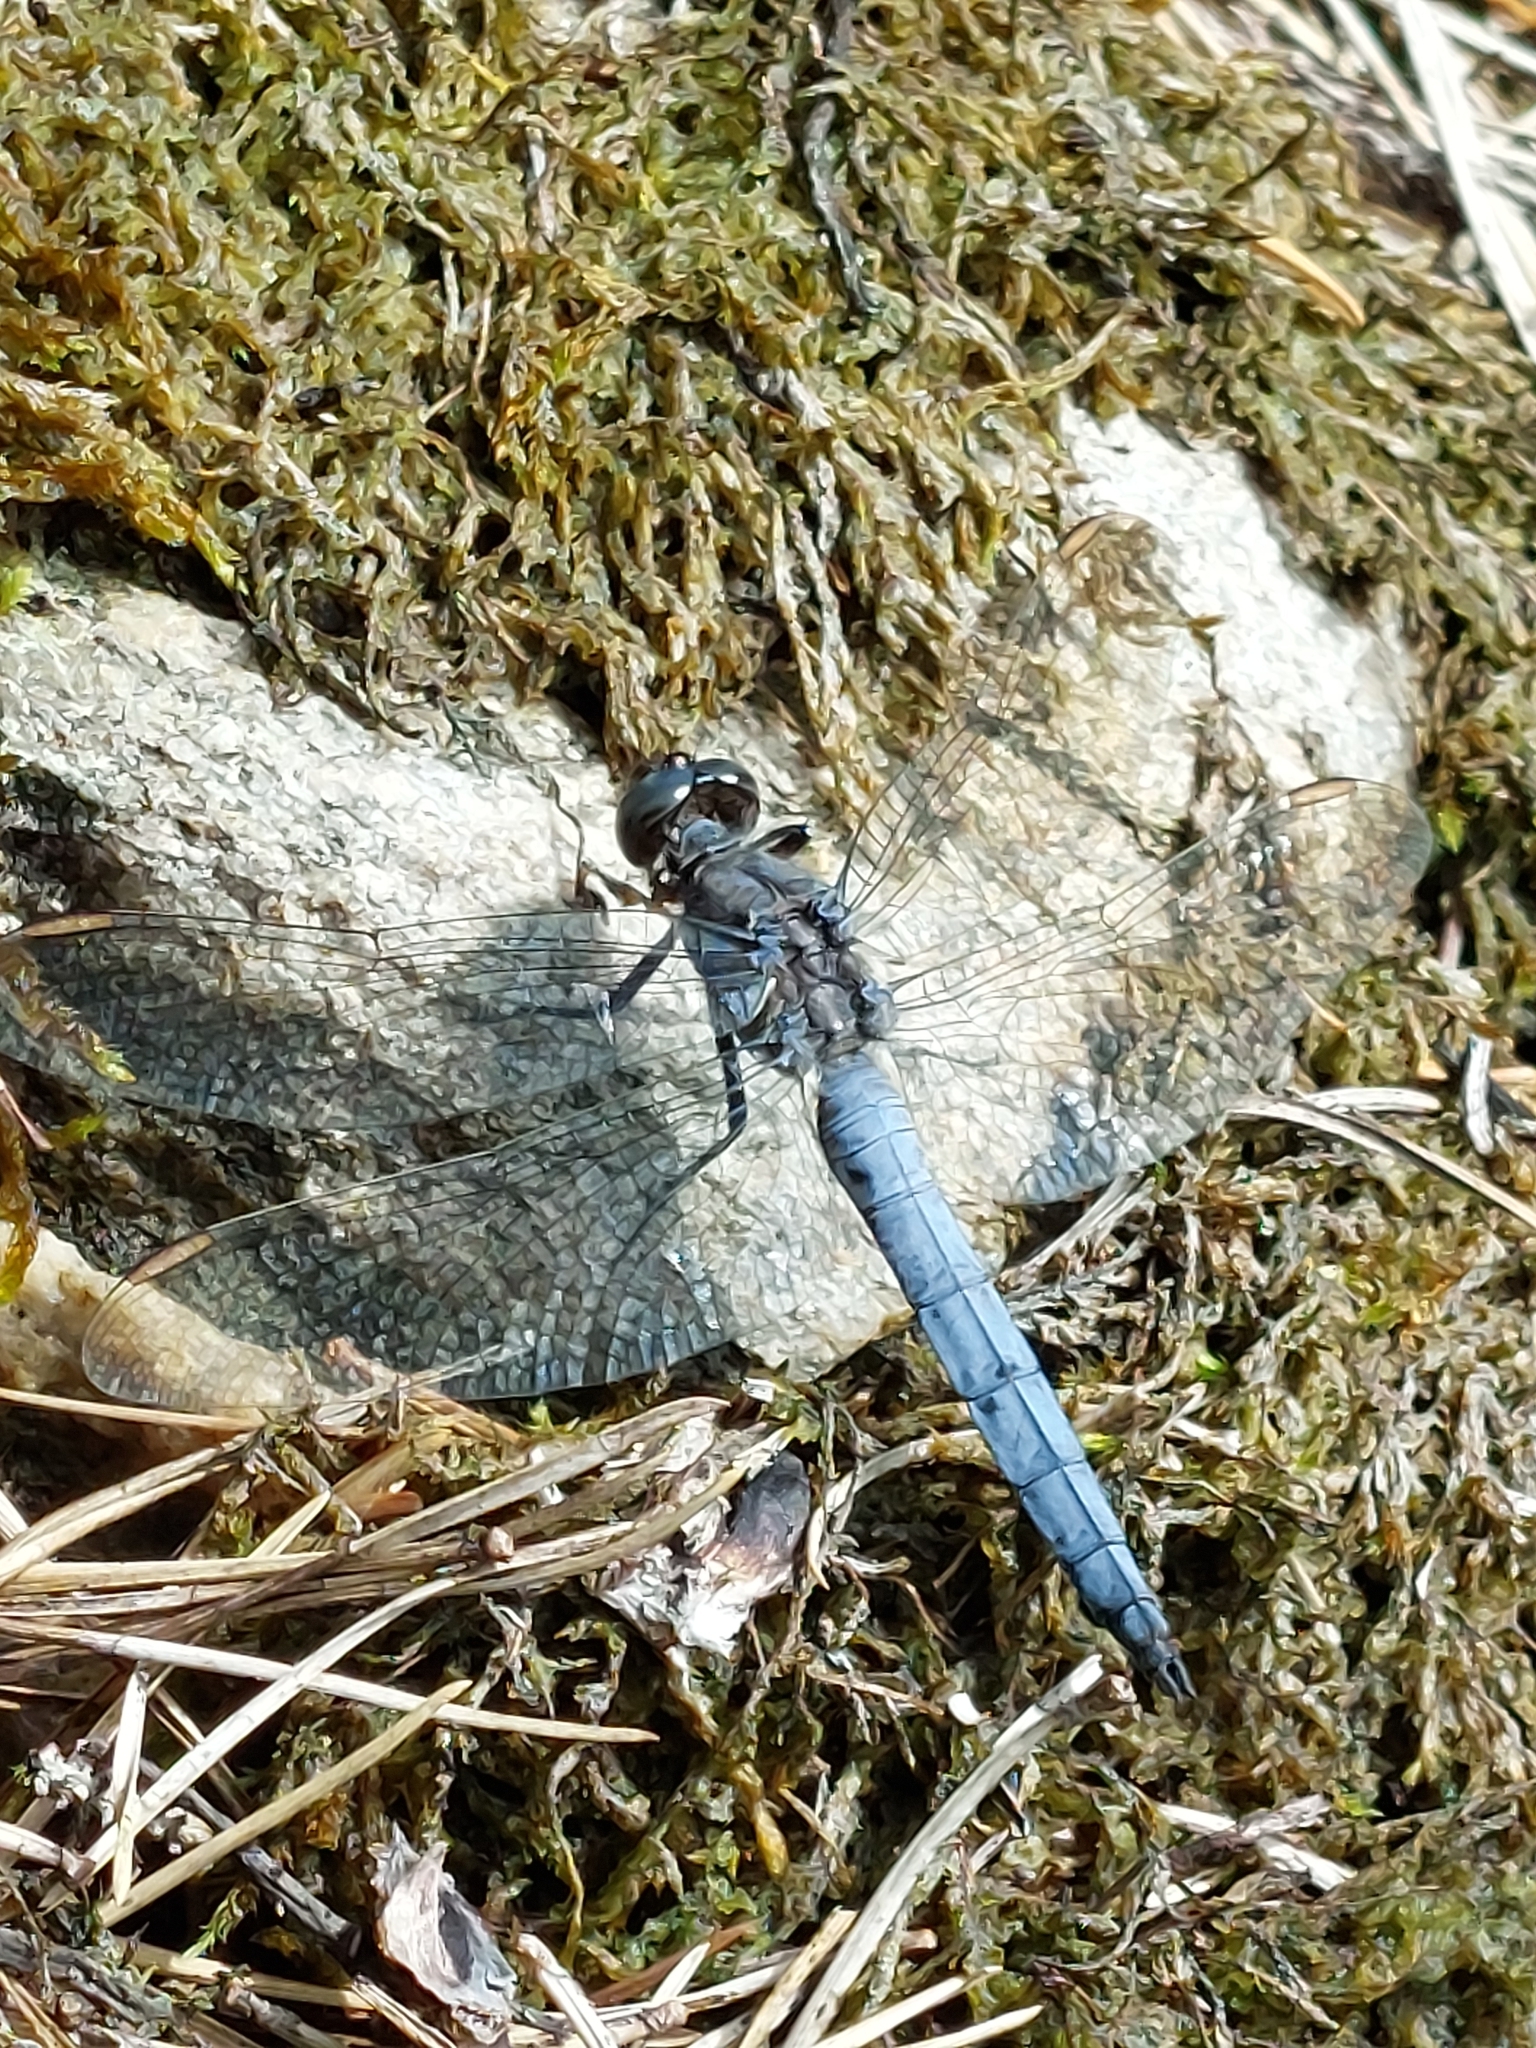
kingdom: Animalia
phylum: Arthropoda
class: Insecta
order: Odonata
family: Libellulidae
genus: Orthetrum
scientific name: Orthetrum coerulescens
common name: Keeled skimmer
